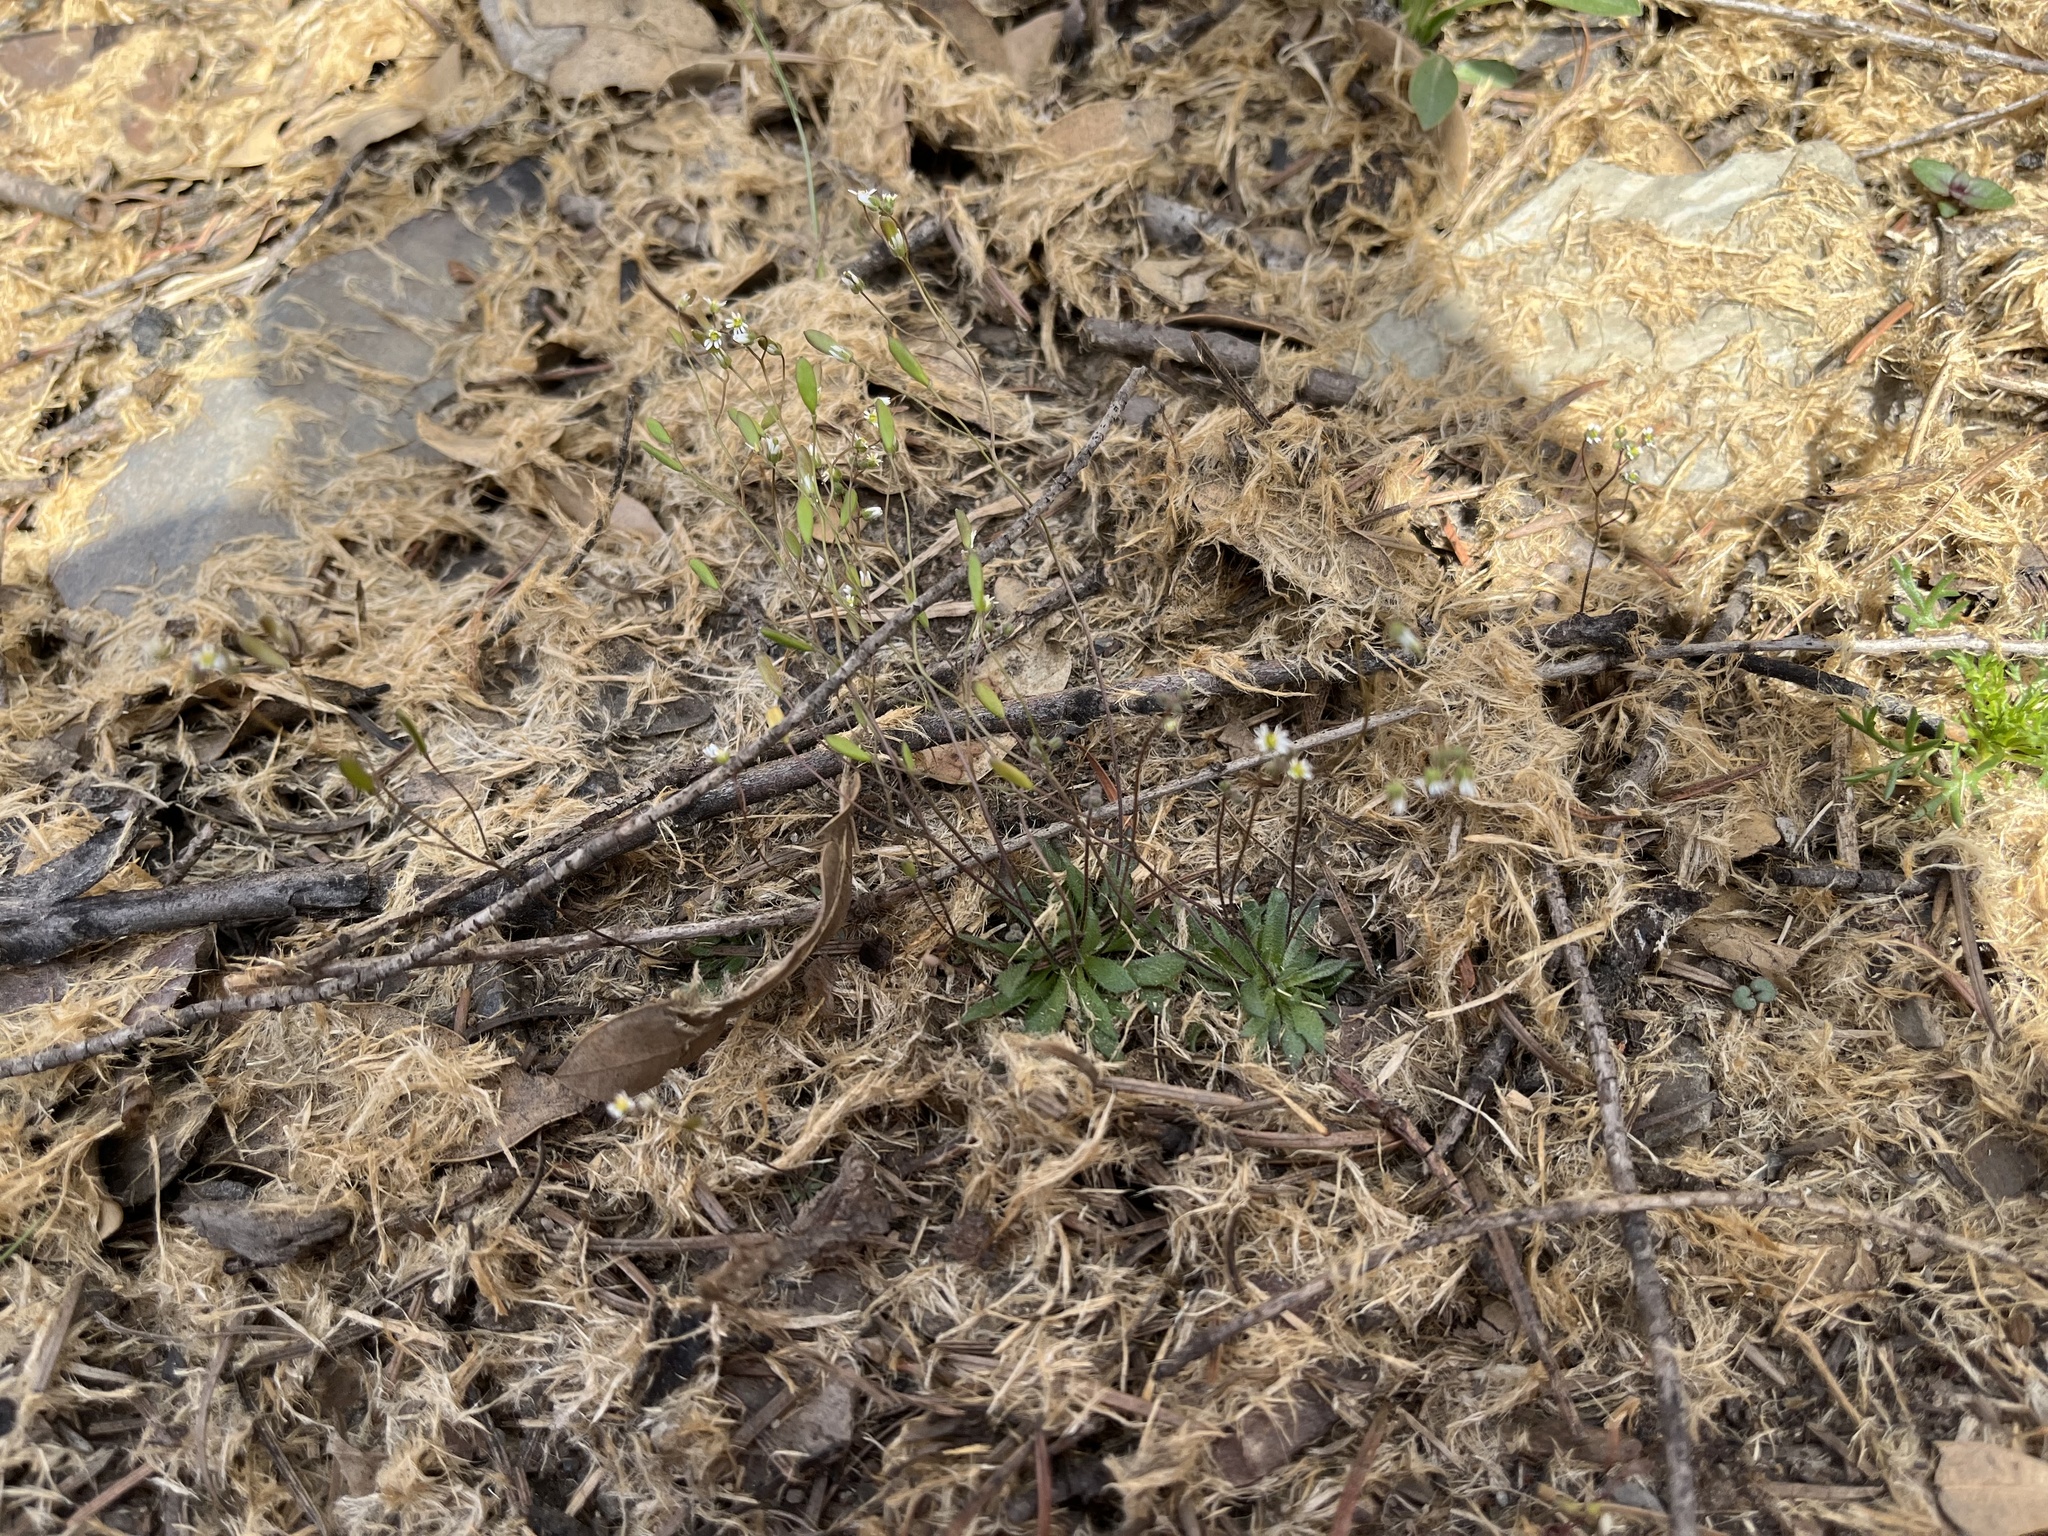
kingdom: Plantae
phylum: Tracheophyta
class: Magnoliopsida
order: Brassicales
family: Brassicaceae
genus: Draba
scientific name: Draba verna
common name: Spring draba
